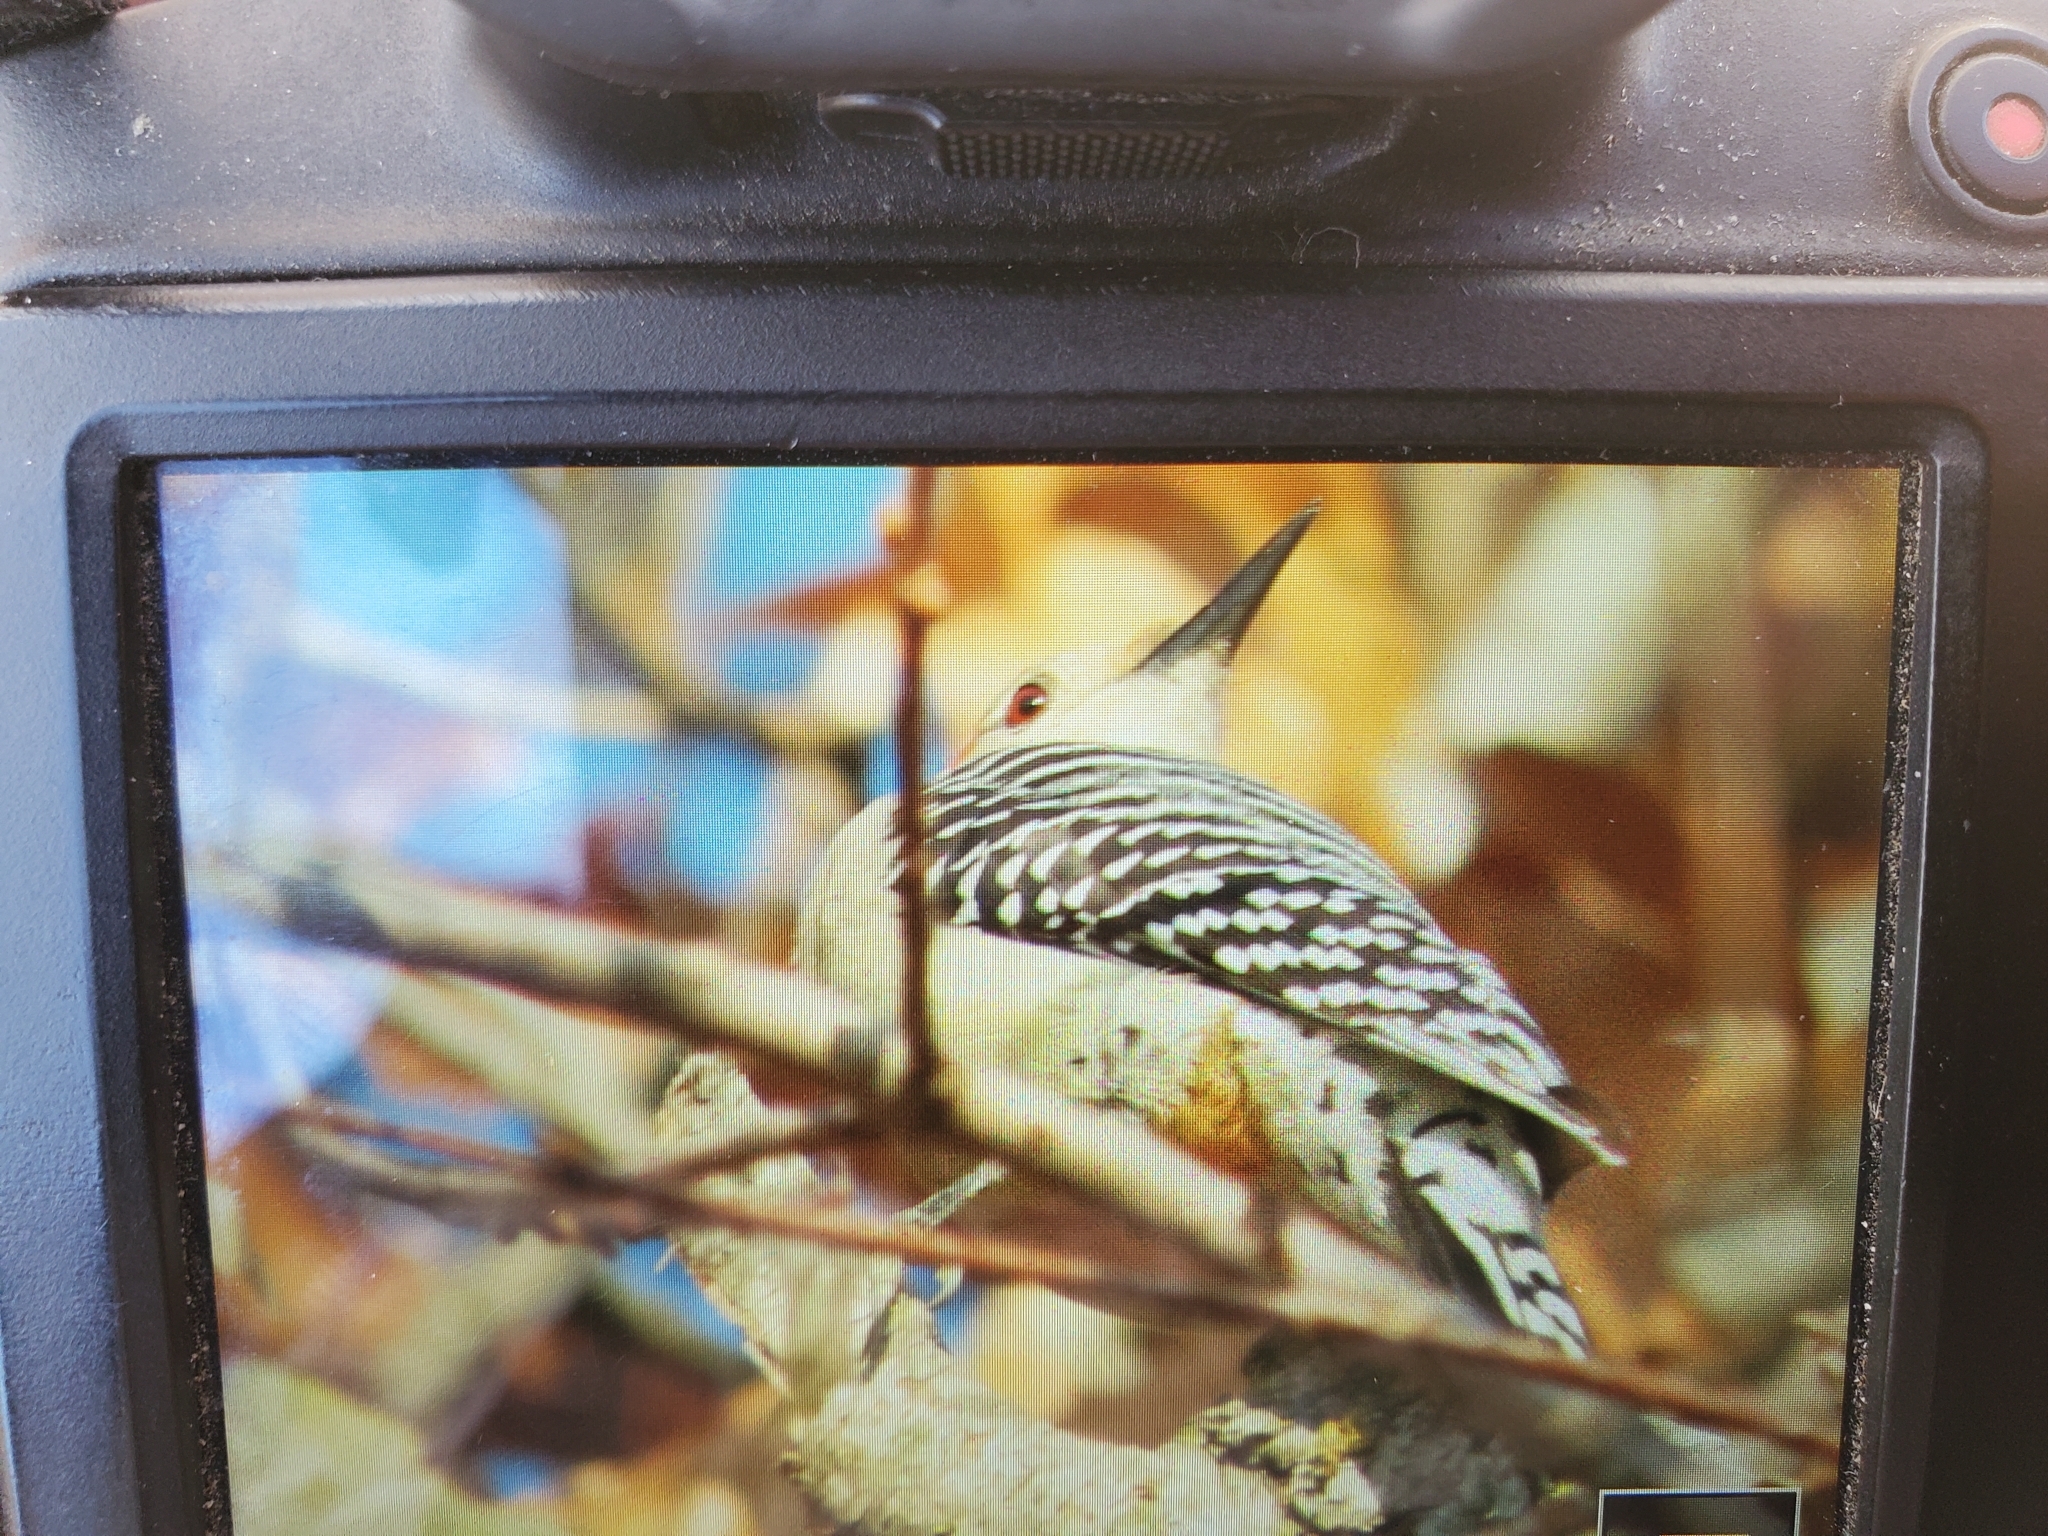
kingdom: Animalia
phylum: Chordata
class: Aves
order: Piciformes
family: Picidae
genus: Melanerpes
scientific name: Melanerpes carolinus
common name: Red-bellied woodpecker
